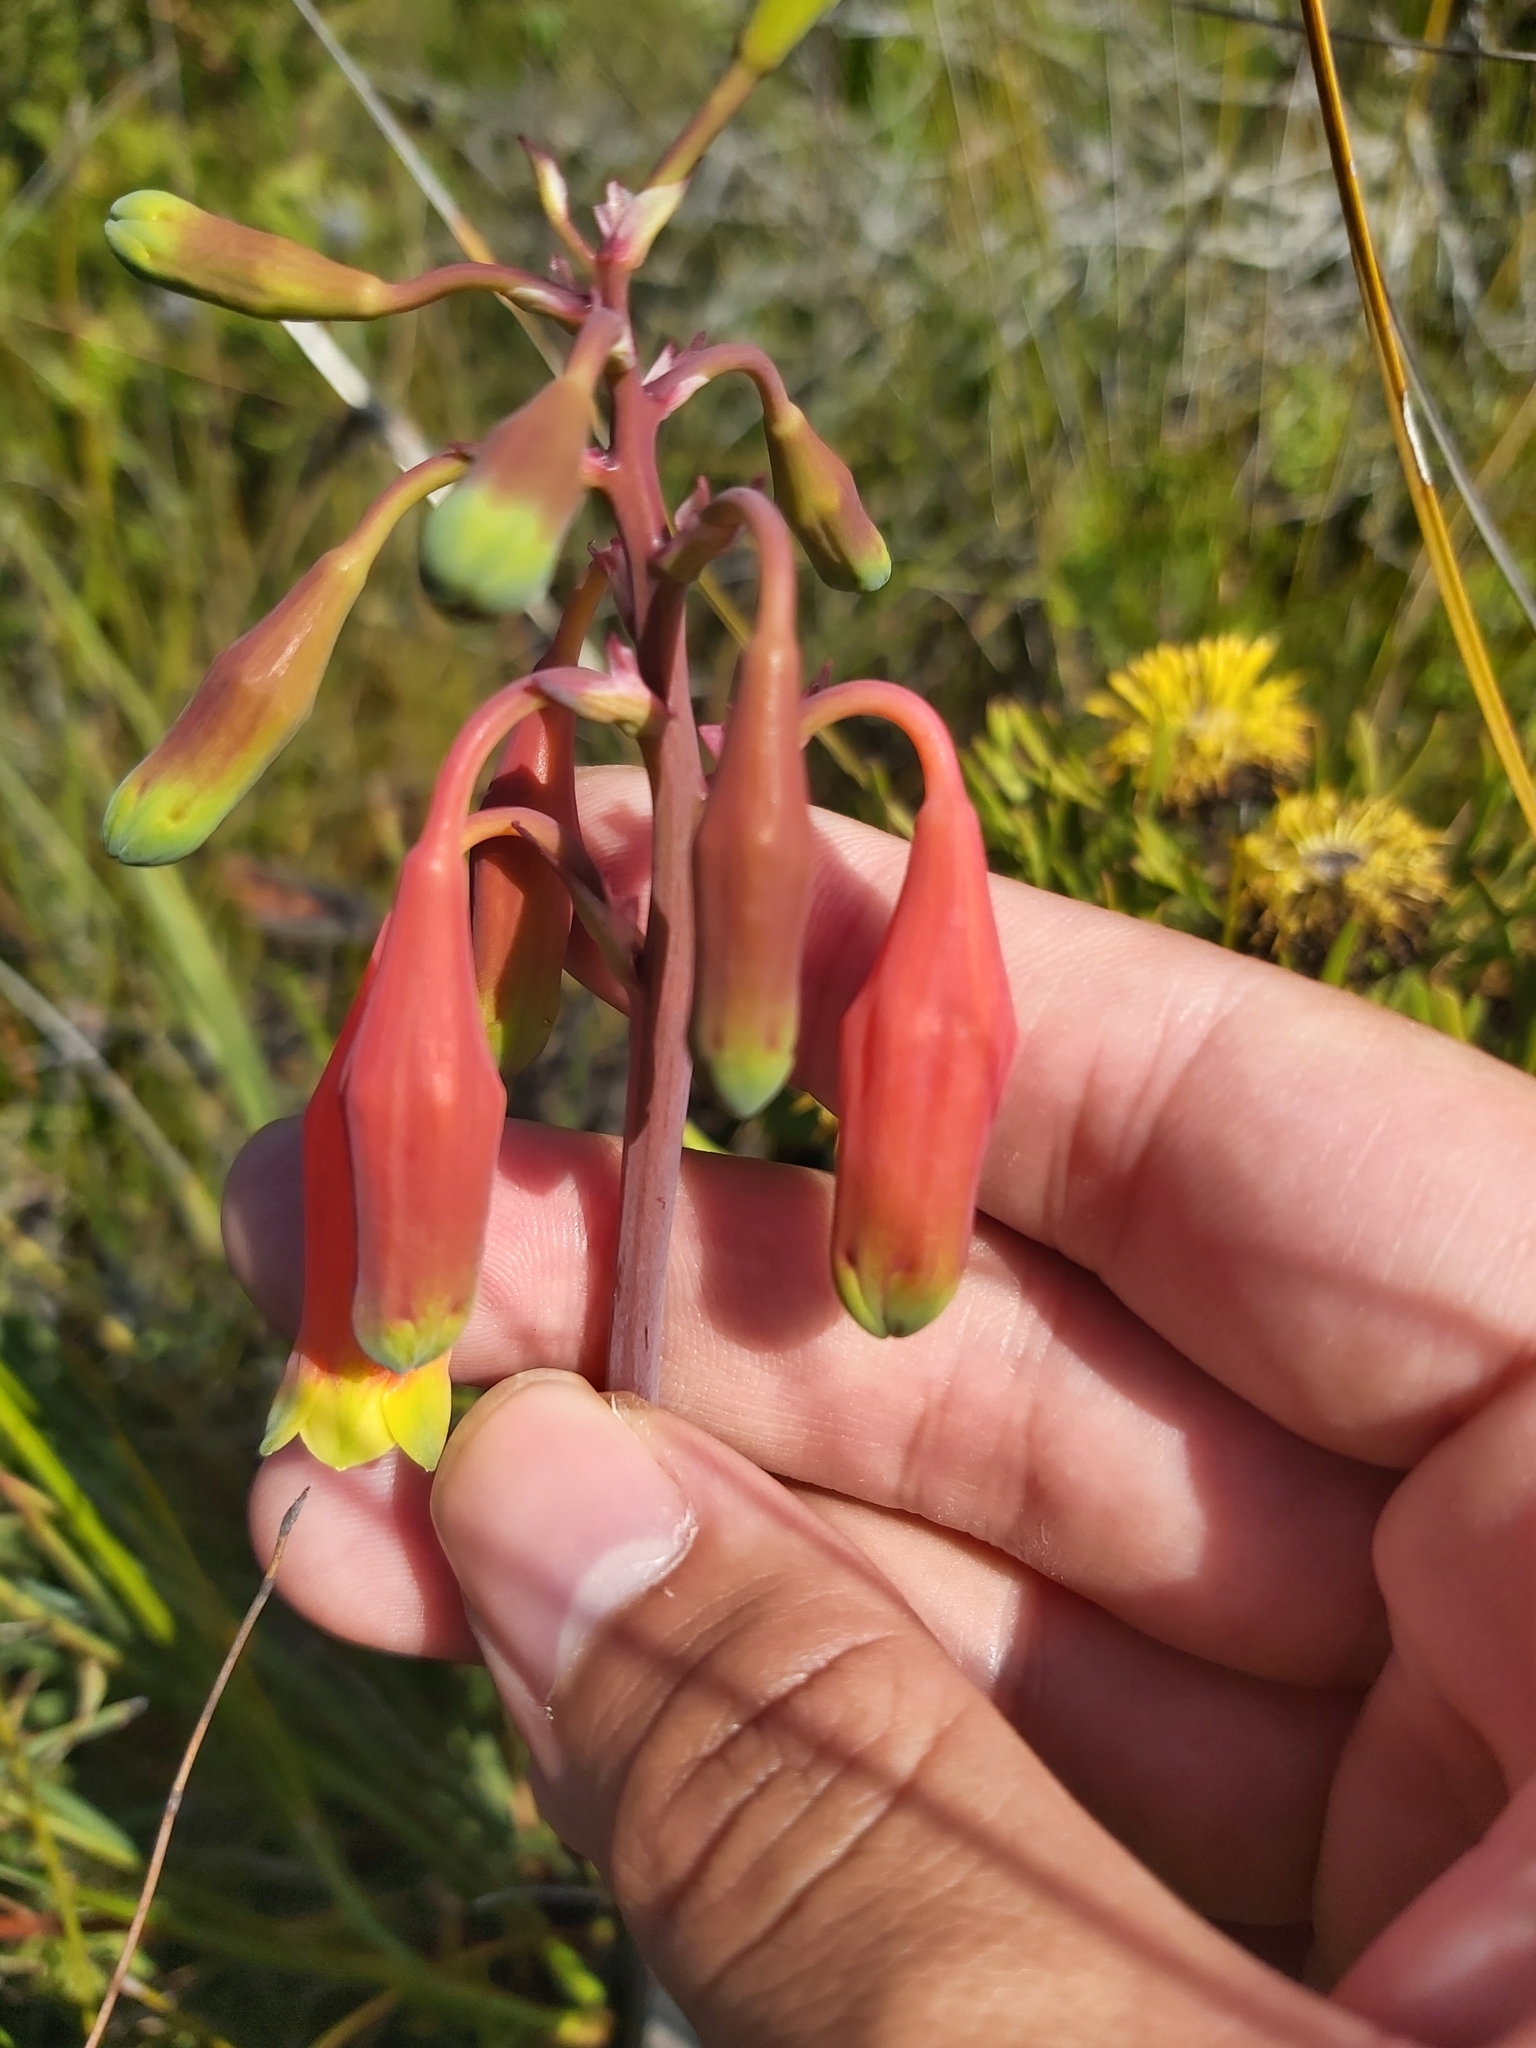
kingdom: Plantae
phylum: Tracheophyta
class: Liliopsida
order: Asparagales
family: Blandfordiaceae
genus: Blandfordia
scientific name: Blandfordia nobilis
